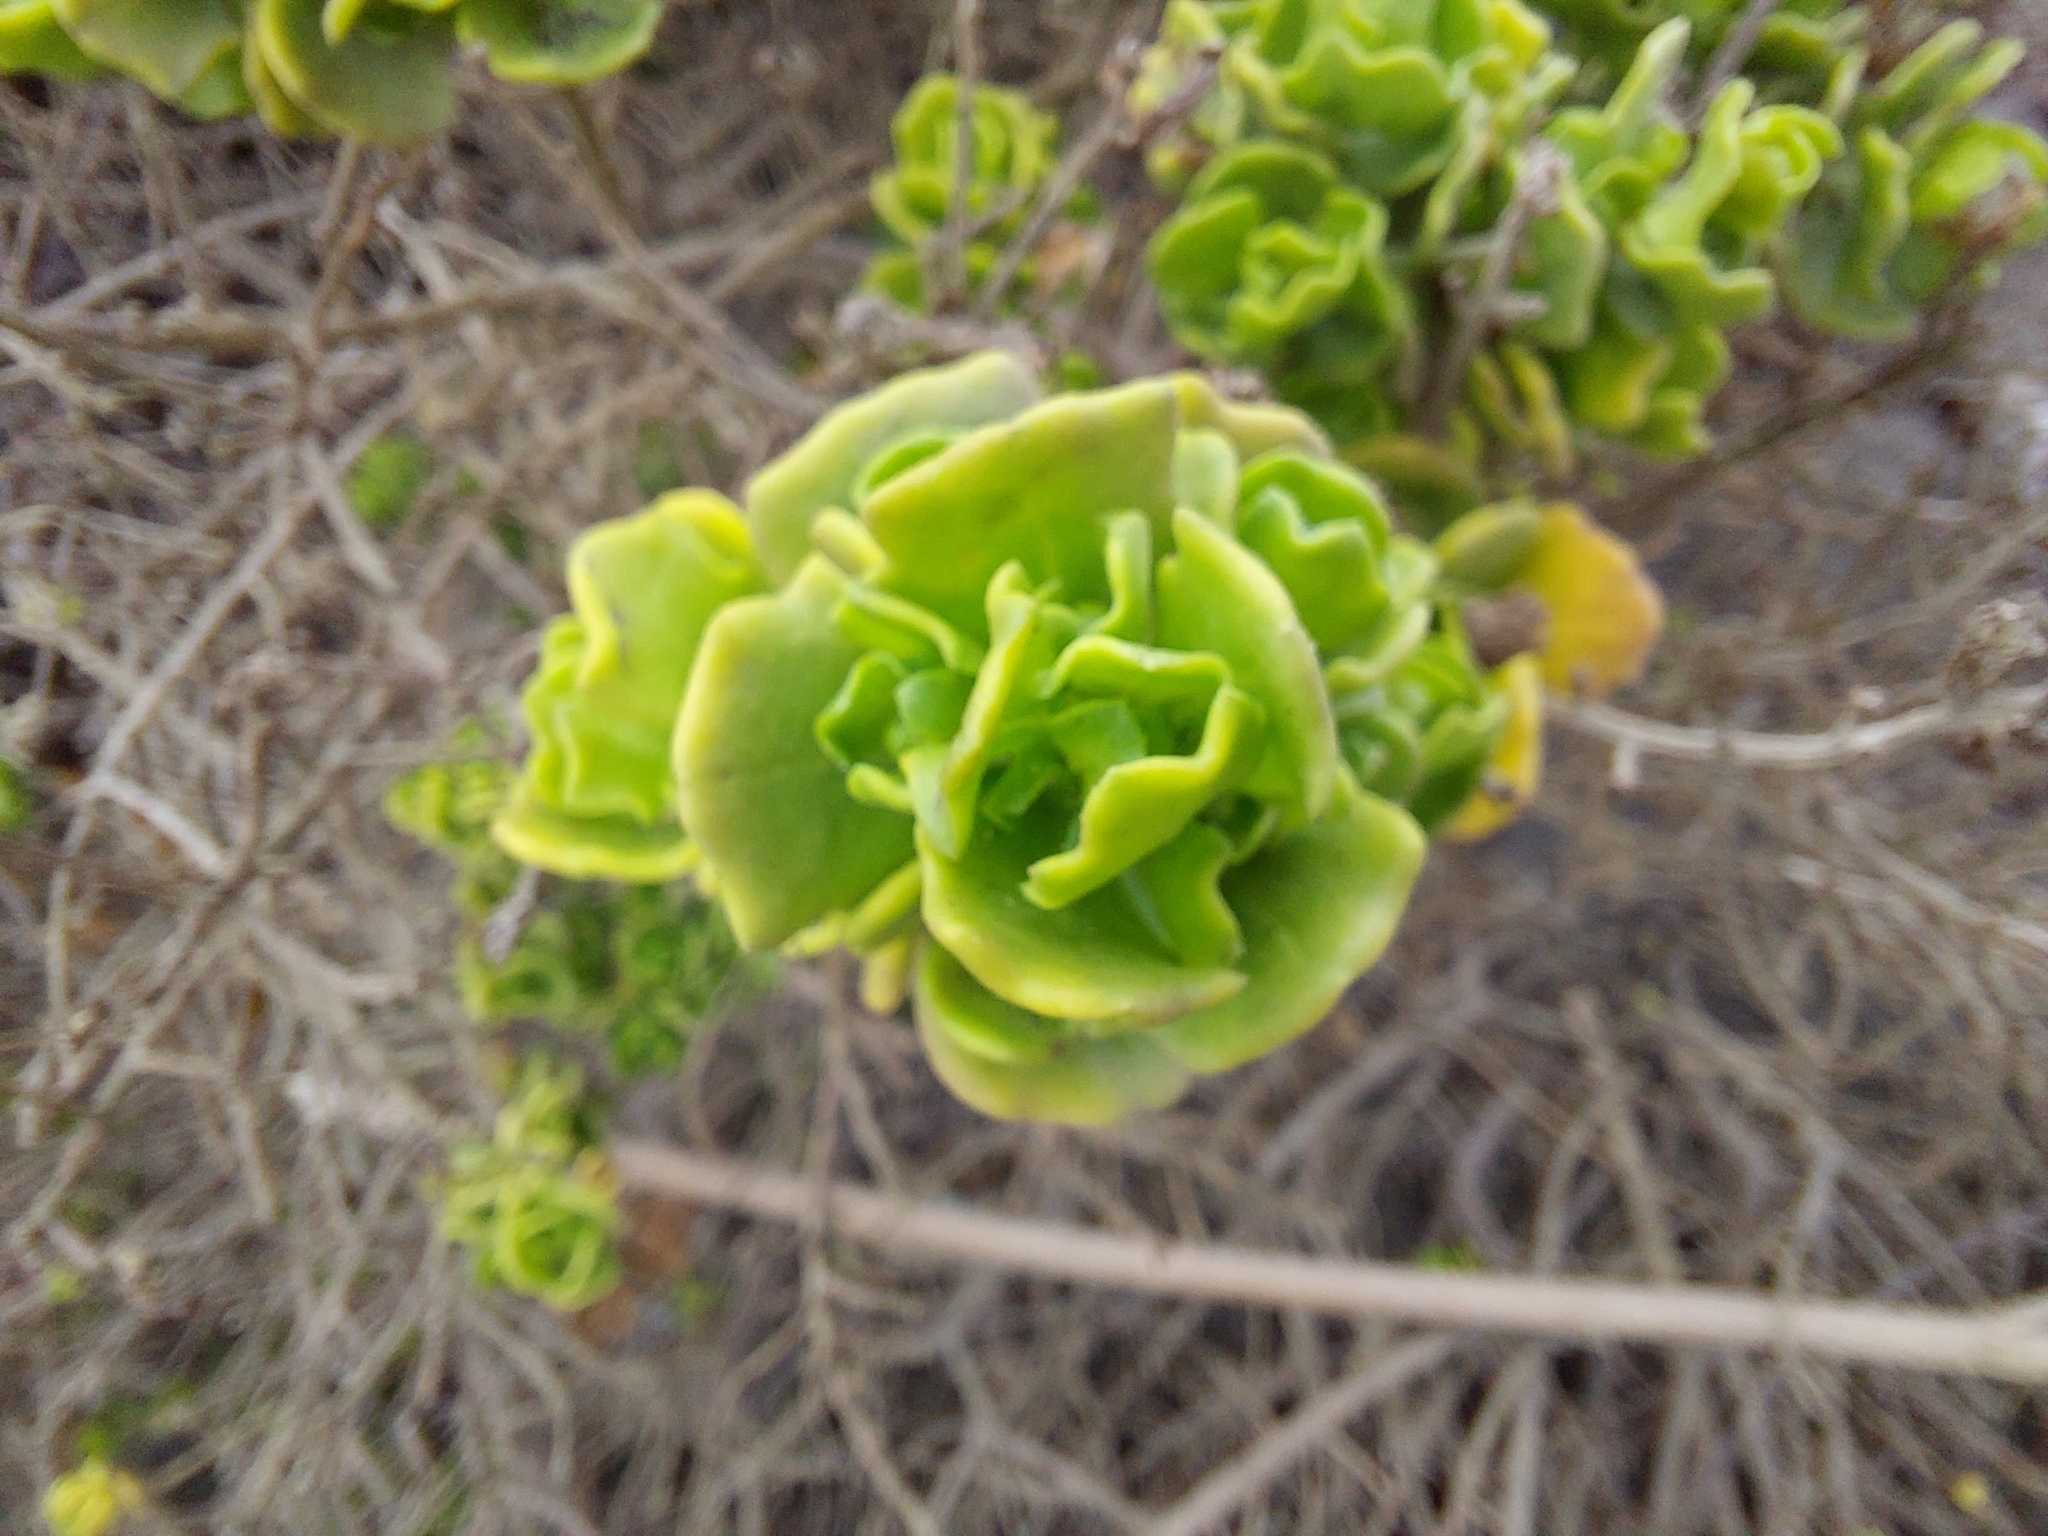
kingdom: Plantae
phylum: Tracheophyta
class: Magnoliopsida
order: Asterales
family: Asteraceae
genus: Baccharis
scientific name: Baccharis vernalis
